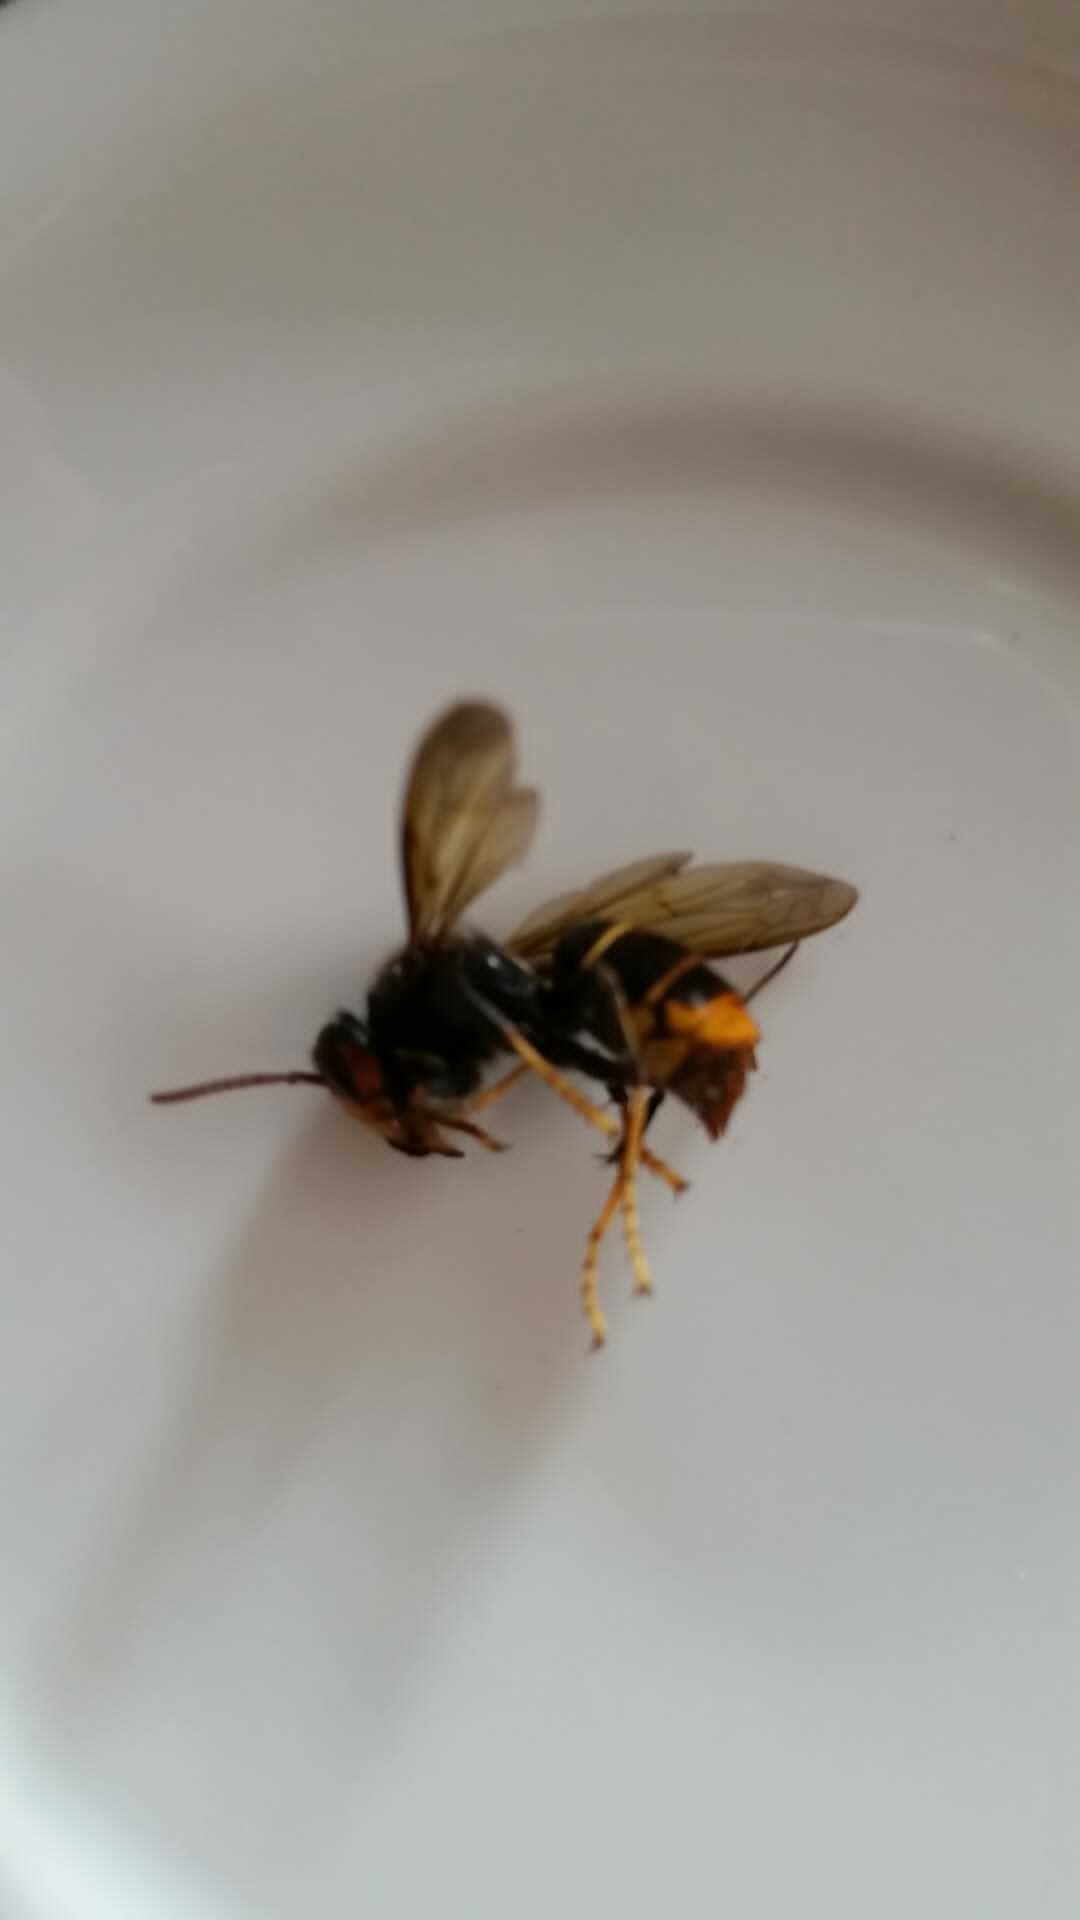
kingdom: Animalia
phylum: Arthropoda
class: Insecta
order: Hymenoptera
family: Vespidae
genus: Vespa
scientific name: Vespa velutina
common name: Asian hornet
